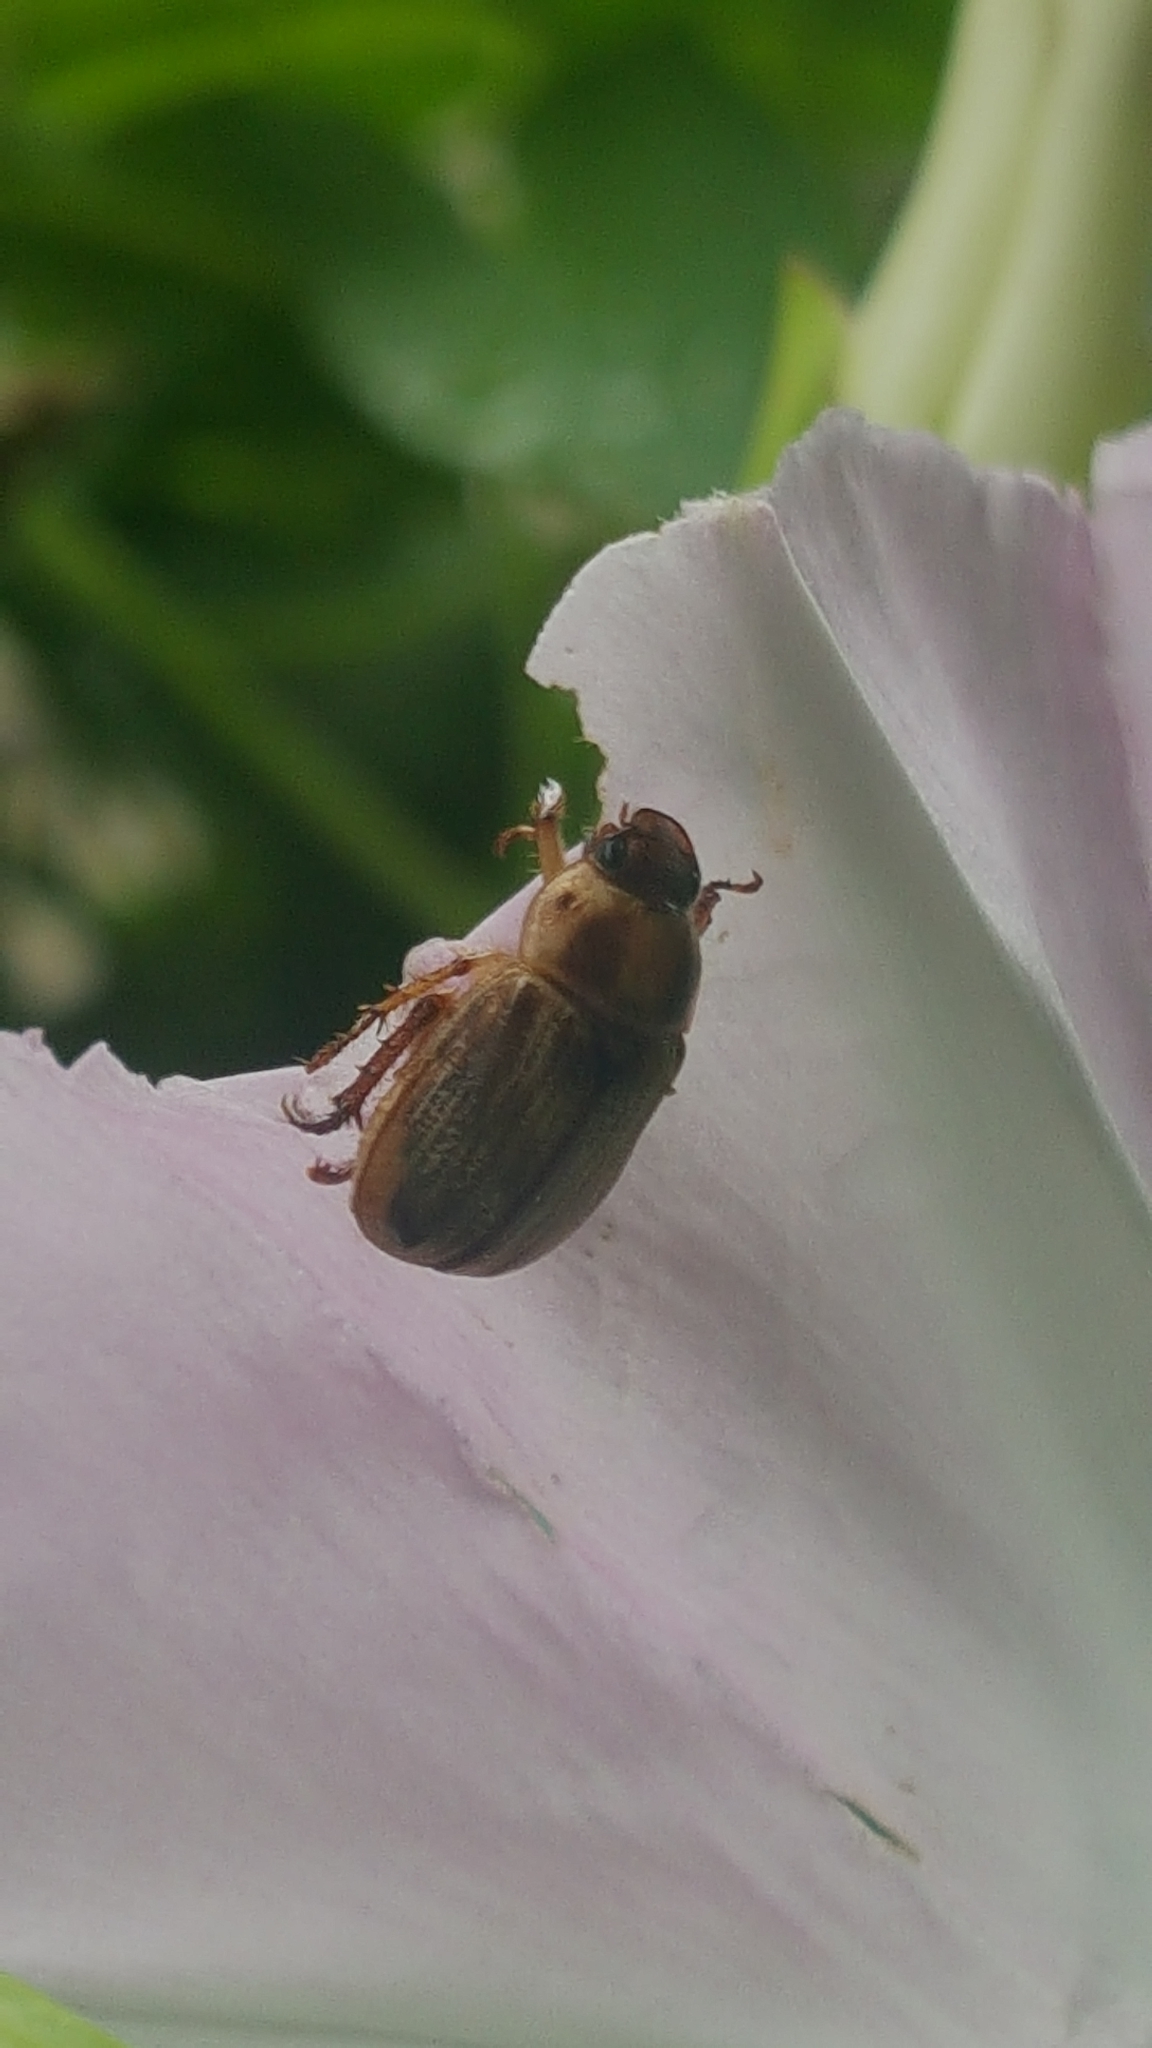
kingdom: Animalia
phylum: Arthropoda
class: Insecta
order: Coleoptera
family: Scarabaeidae
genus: Exomala
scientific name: Exomala orientalis
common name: Oriental beetle
